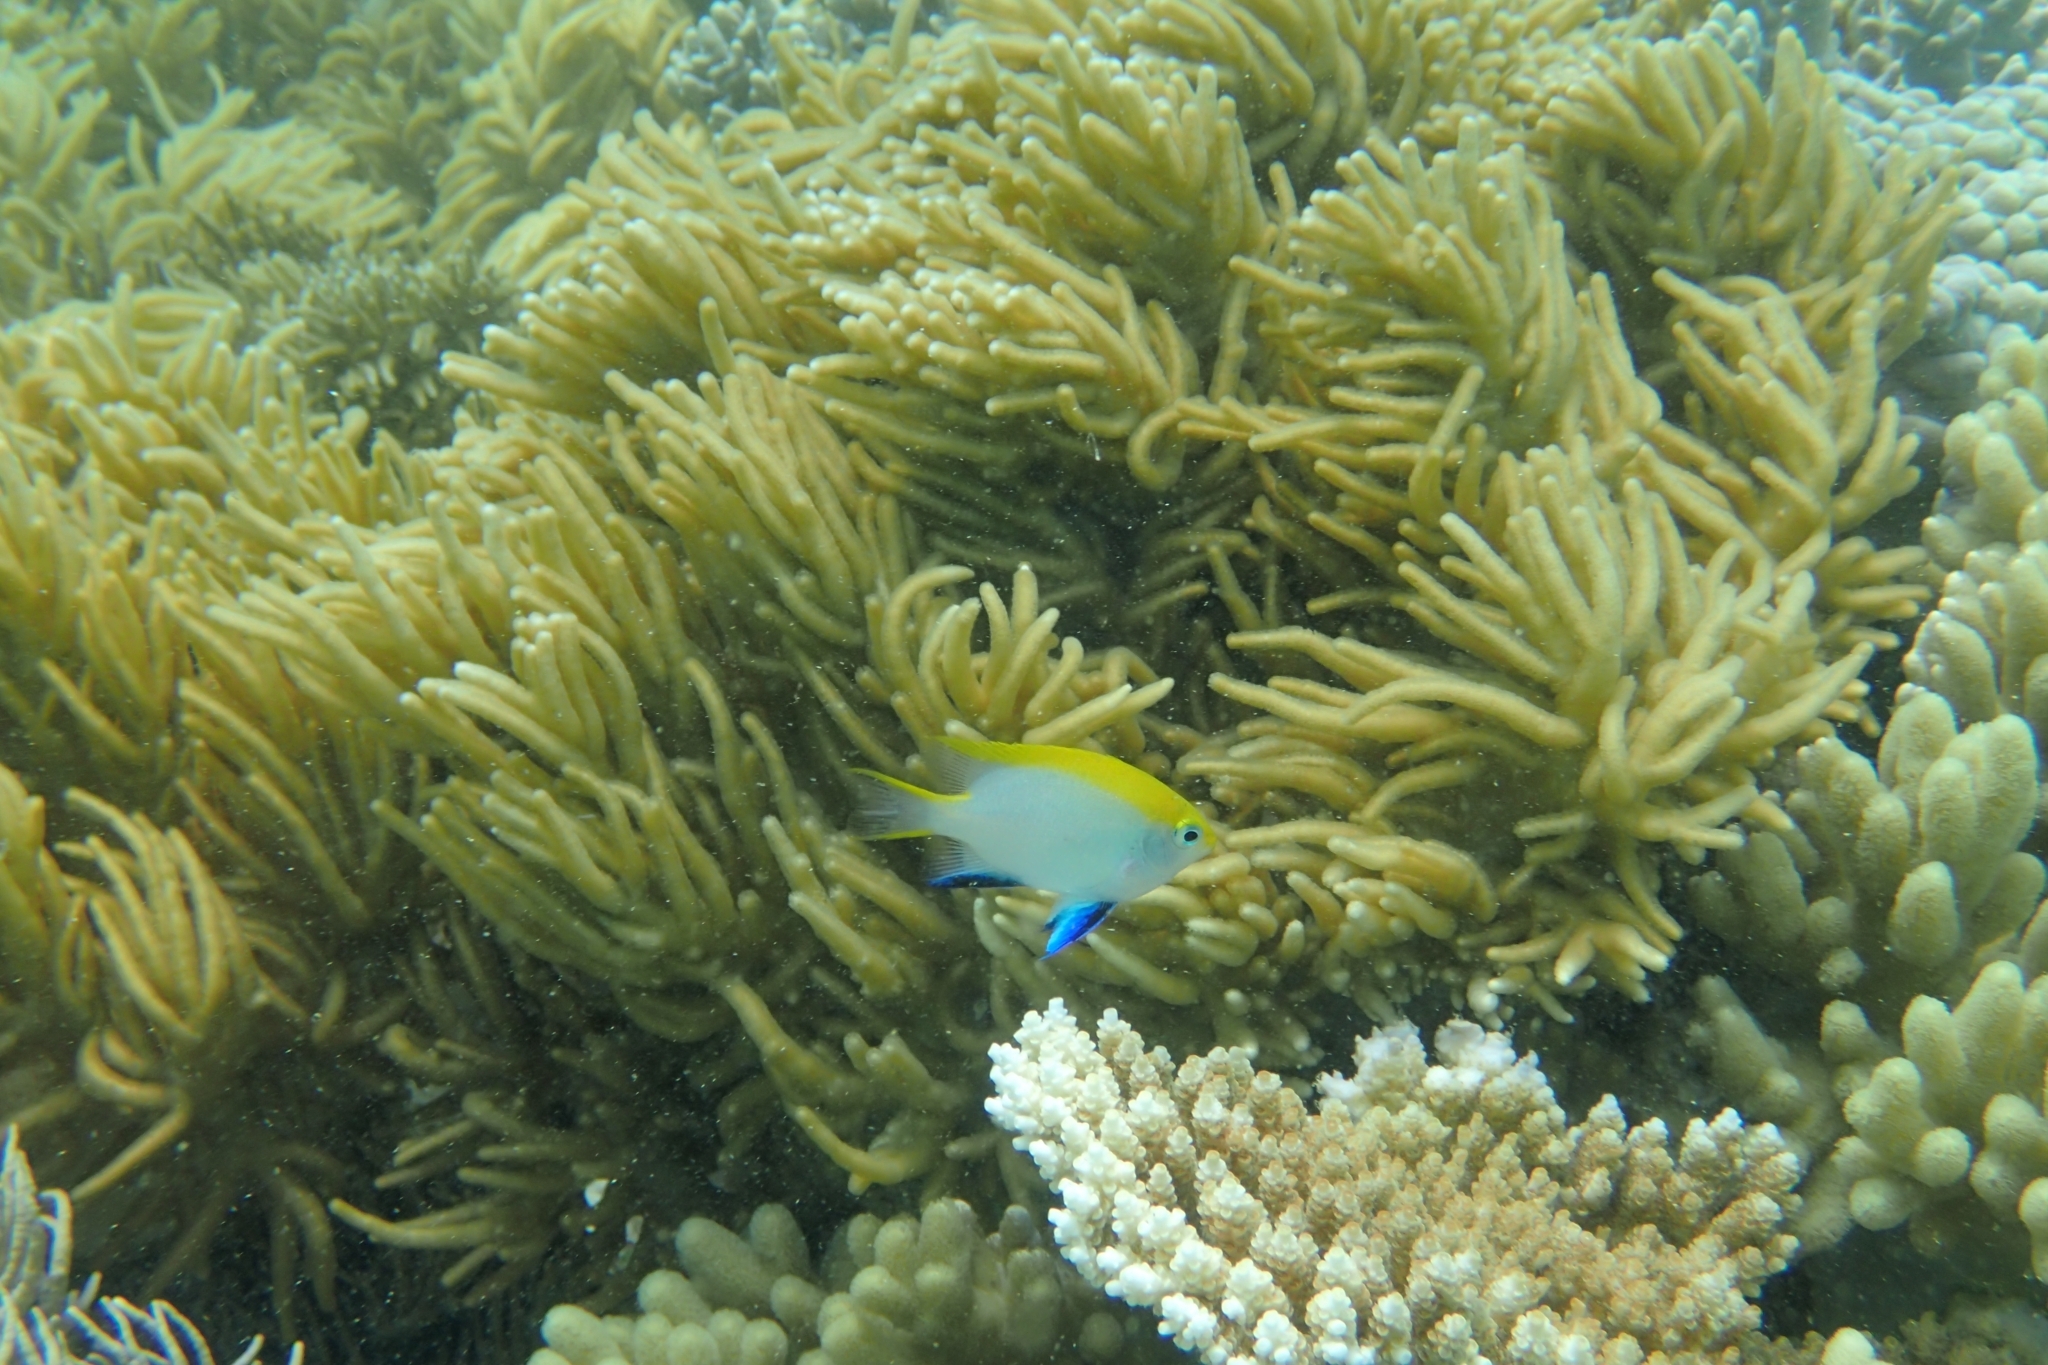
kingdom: Animalia
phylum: Chordata
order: Perciformes
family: Pomacentridae
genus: Neoglyphidodon
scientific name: Neoglyphidodon melas
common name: Black damsel
